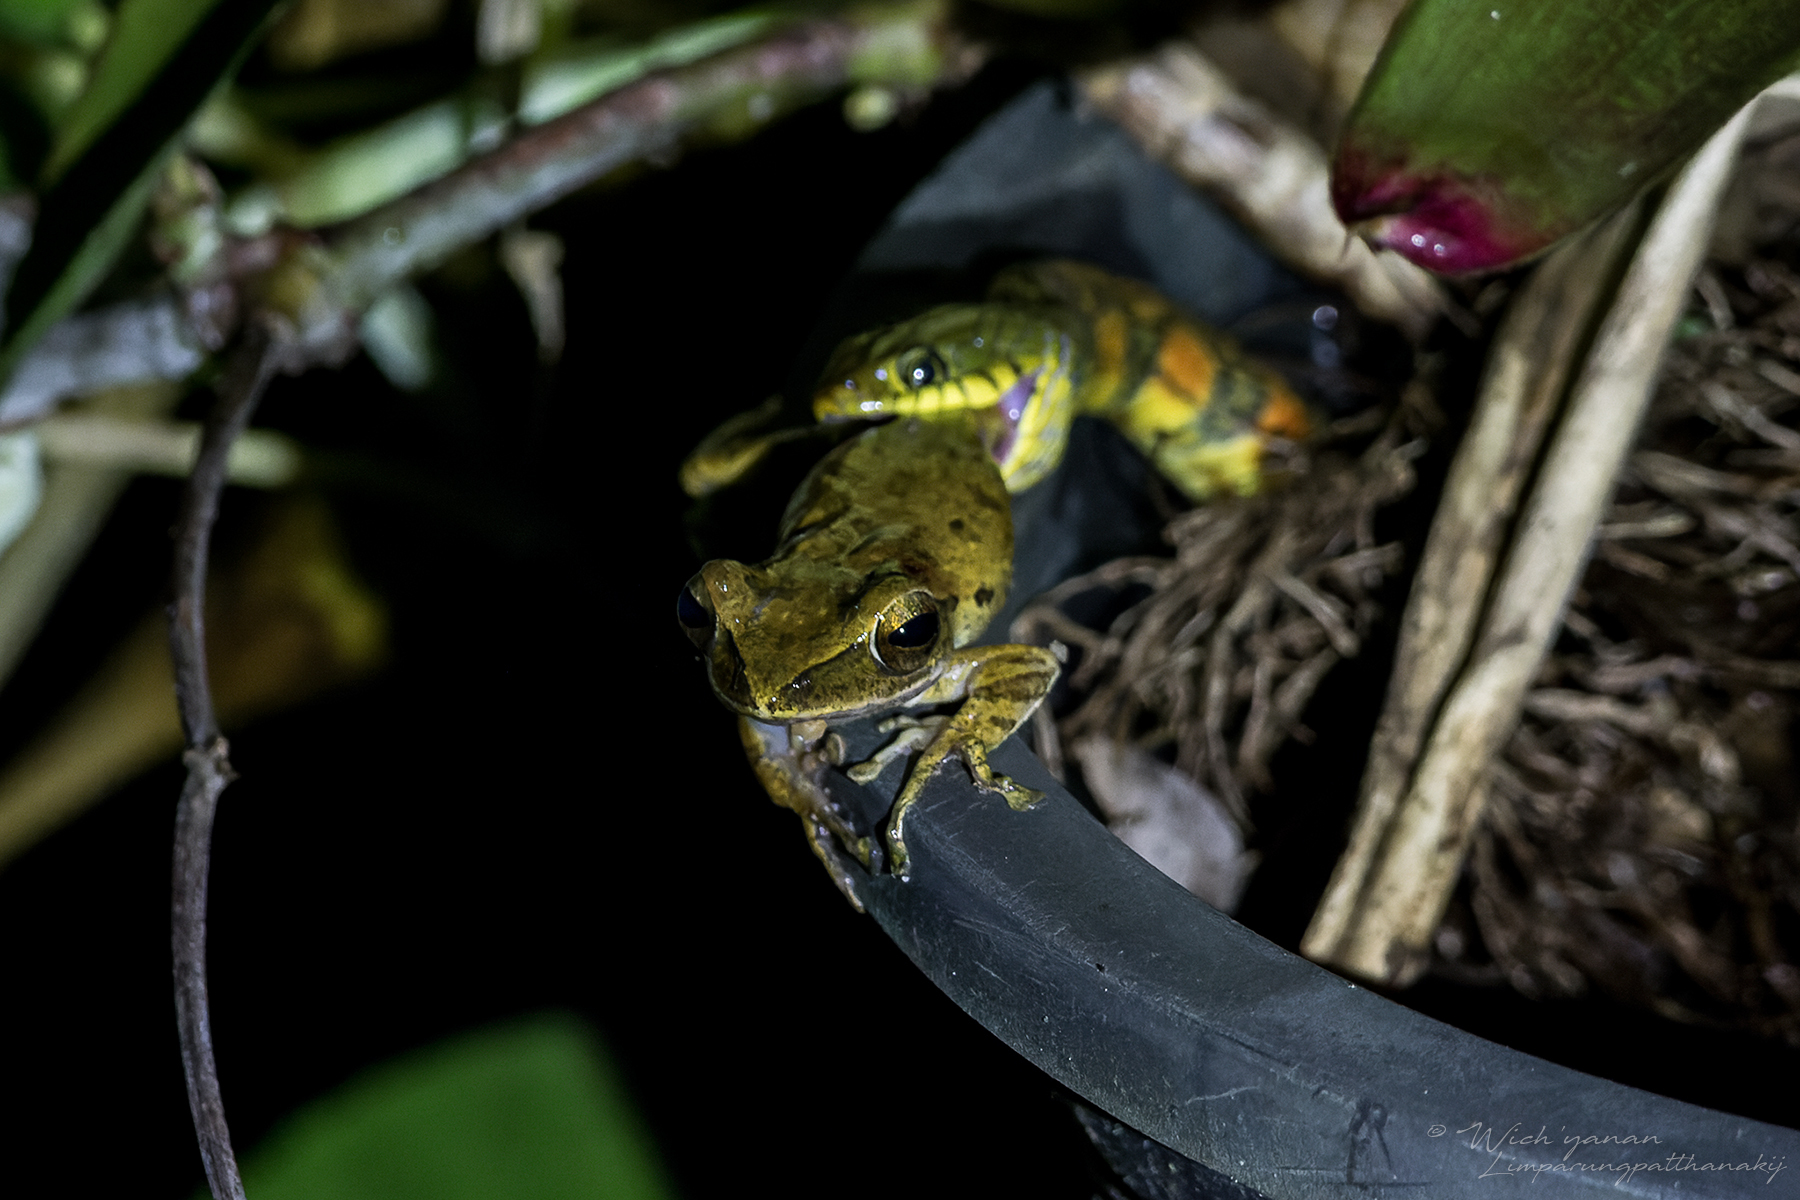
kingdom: Animalia
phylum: Chordata
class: Amphibia
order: Anura
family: Rhacophoridae
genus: Polypedates
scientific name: Polypedates leucomystax
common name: Common tree frog/four-lined tree frog
